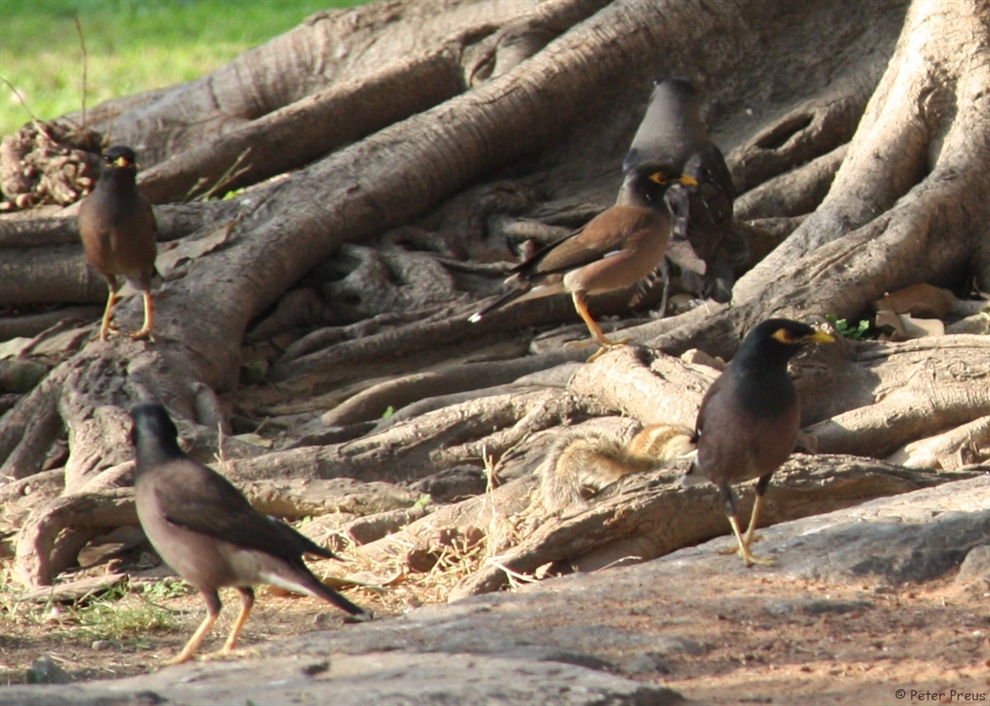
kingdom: Animalia
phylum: Chordata
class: Aves
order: Passeriformes
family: Sturnidae
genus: Acridotheres
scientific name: Acridotheres tristis
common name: Common myna
